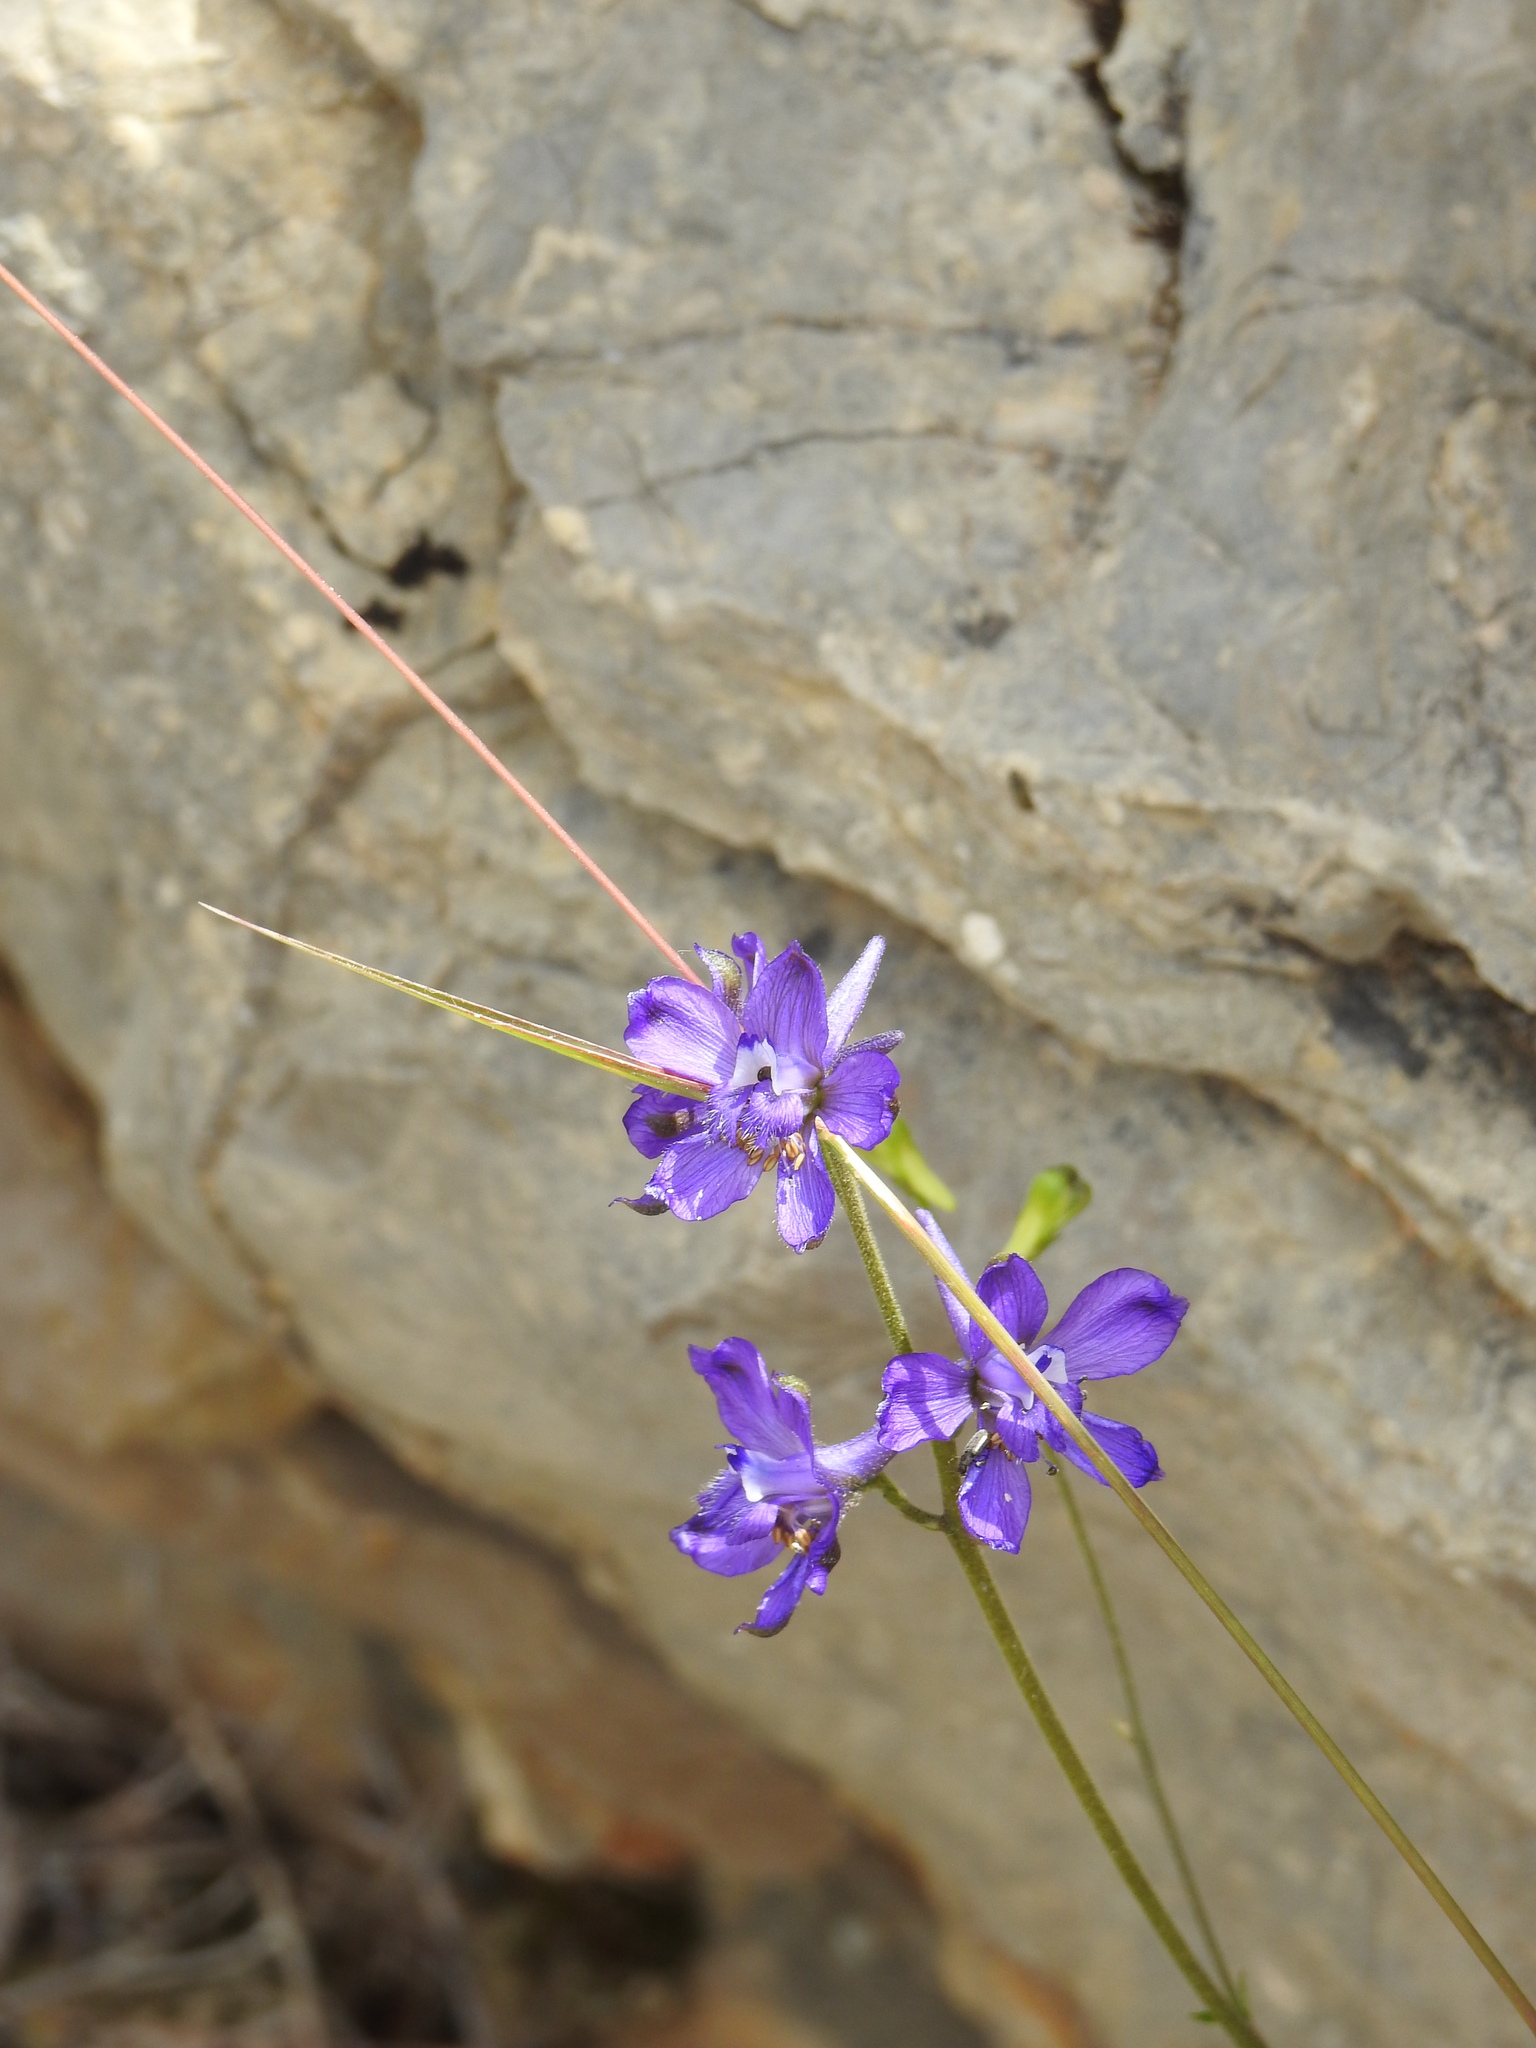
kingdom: Plantae
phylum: Tracheophyta
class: Magnoliopsida
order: Ranunculales
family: Ranunculaceae
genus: Delphinium
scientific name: Delphinium pentagynum
